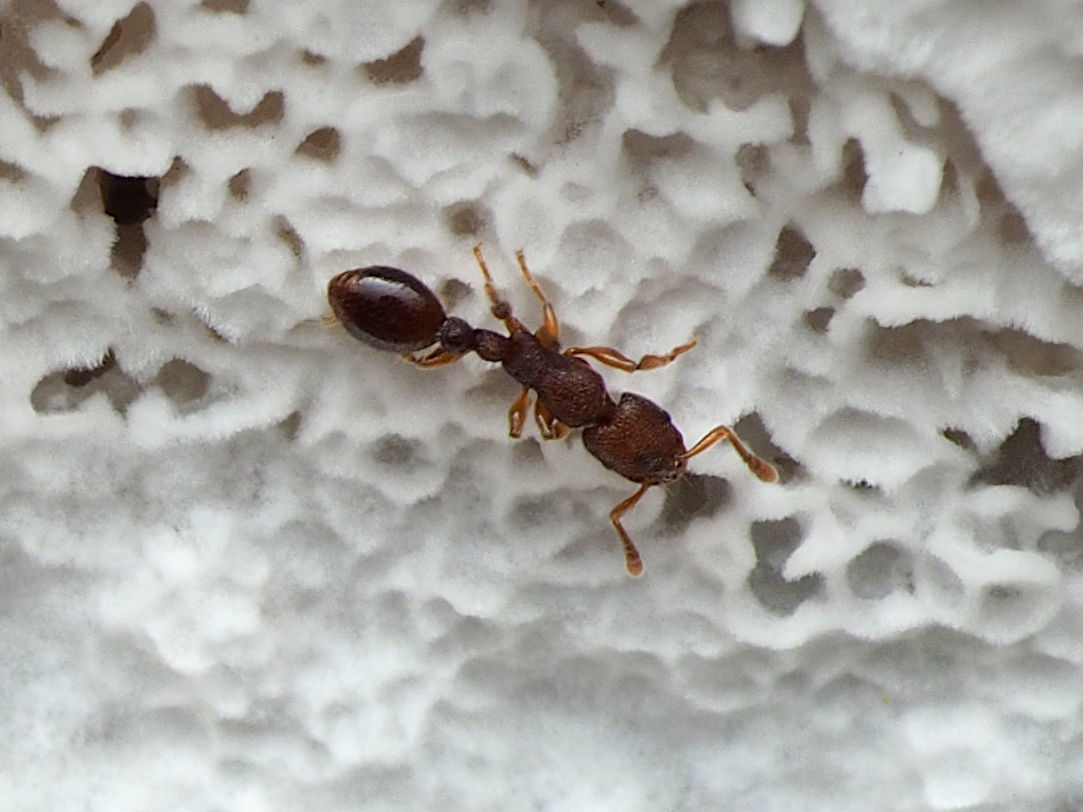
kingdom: Animalia
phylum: Arthropoda
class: Insecta
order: Hymenoptera
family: Formicidae
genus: Vollenhovia
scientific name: Vollenhovia emeryi
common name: Ant
